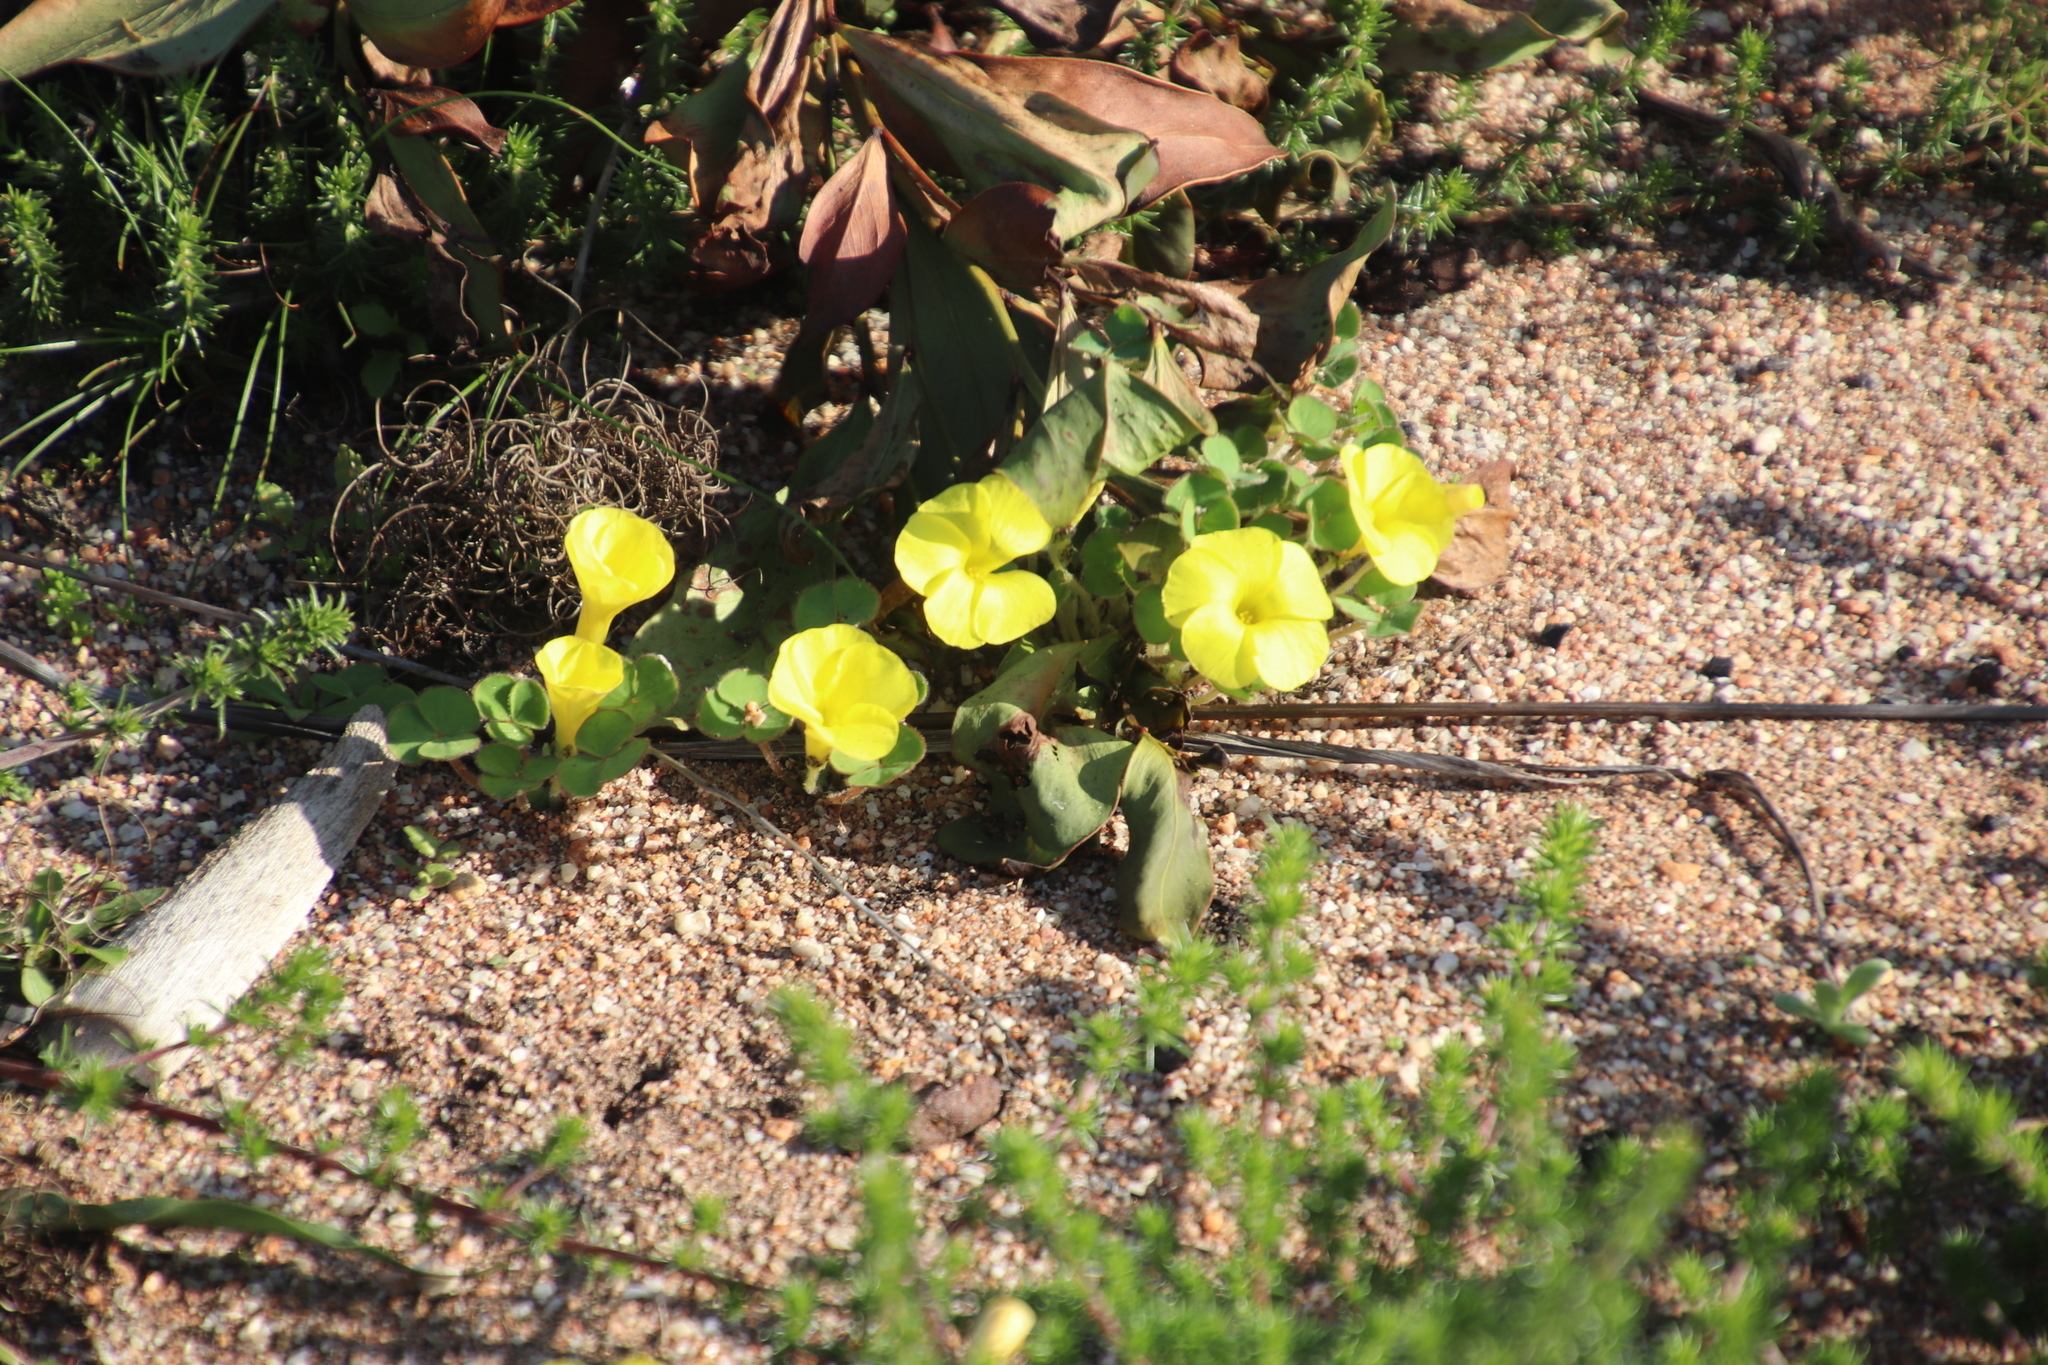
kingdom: Plantae
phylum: Tracheophyta
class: Magnoliopsida
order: Oxalidales
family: Oxalidaceae
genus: Oxalis
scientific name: Oxalis luteola
